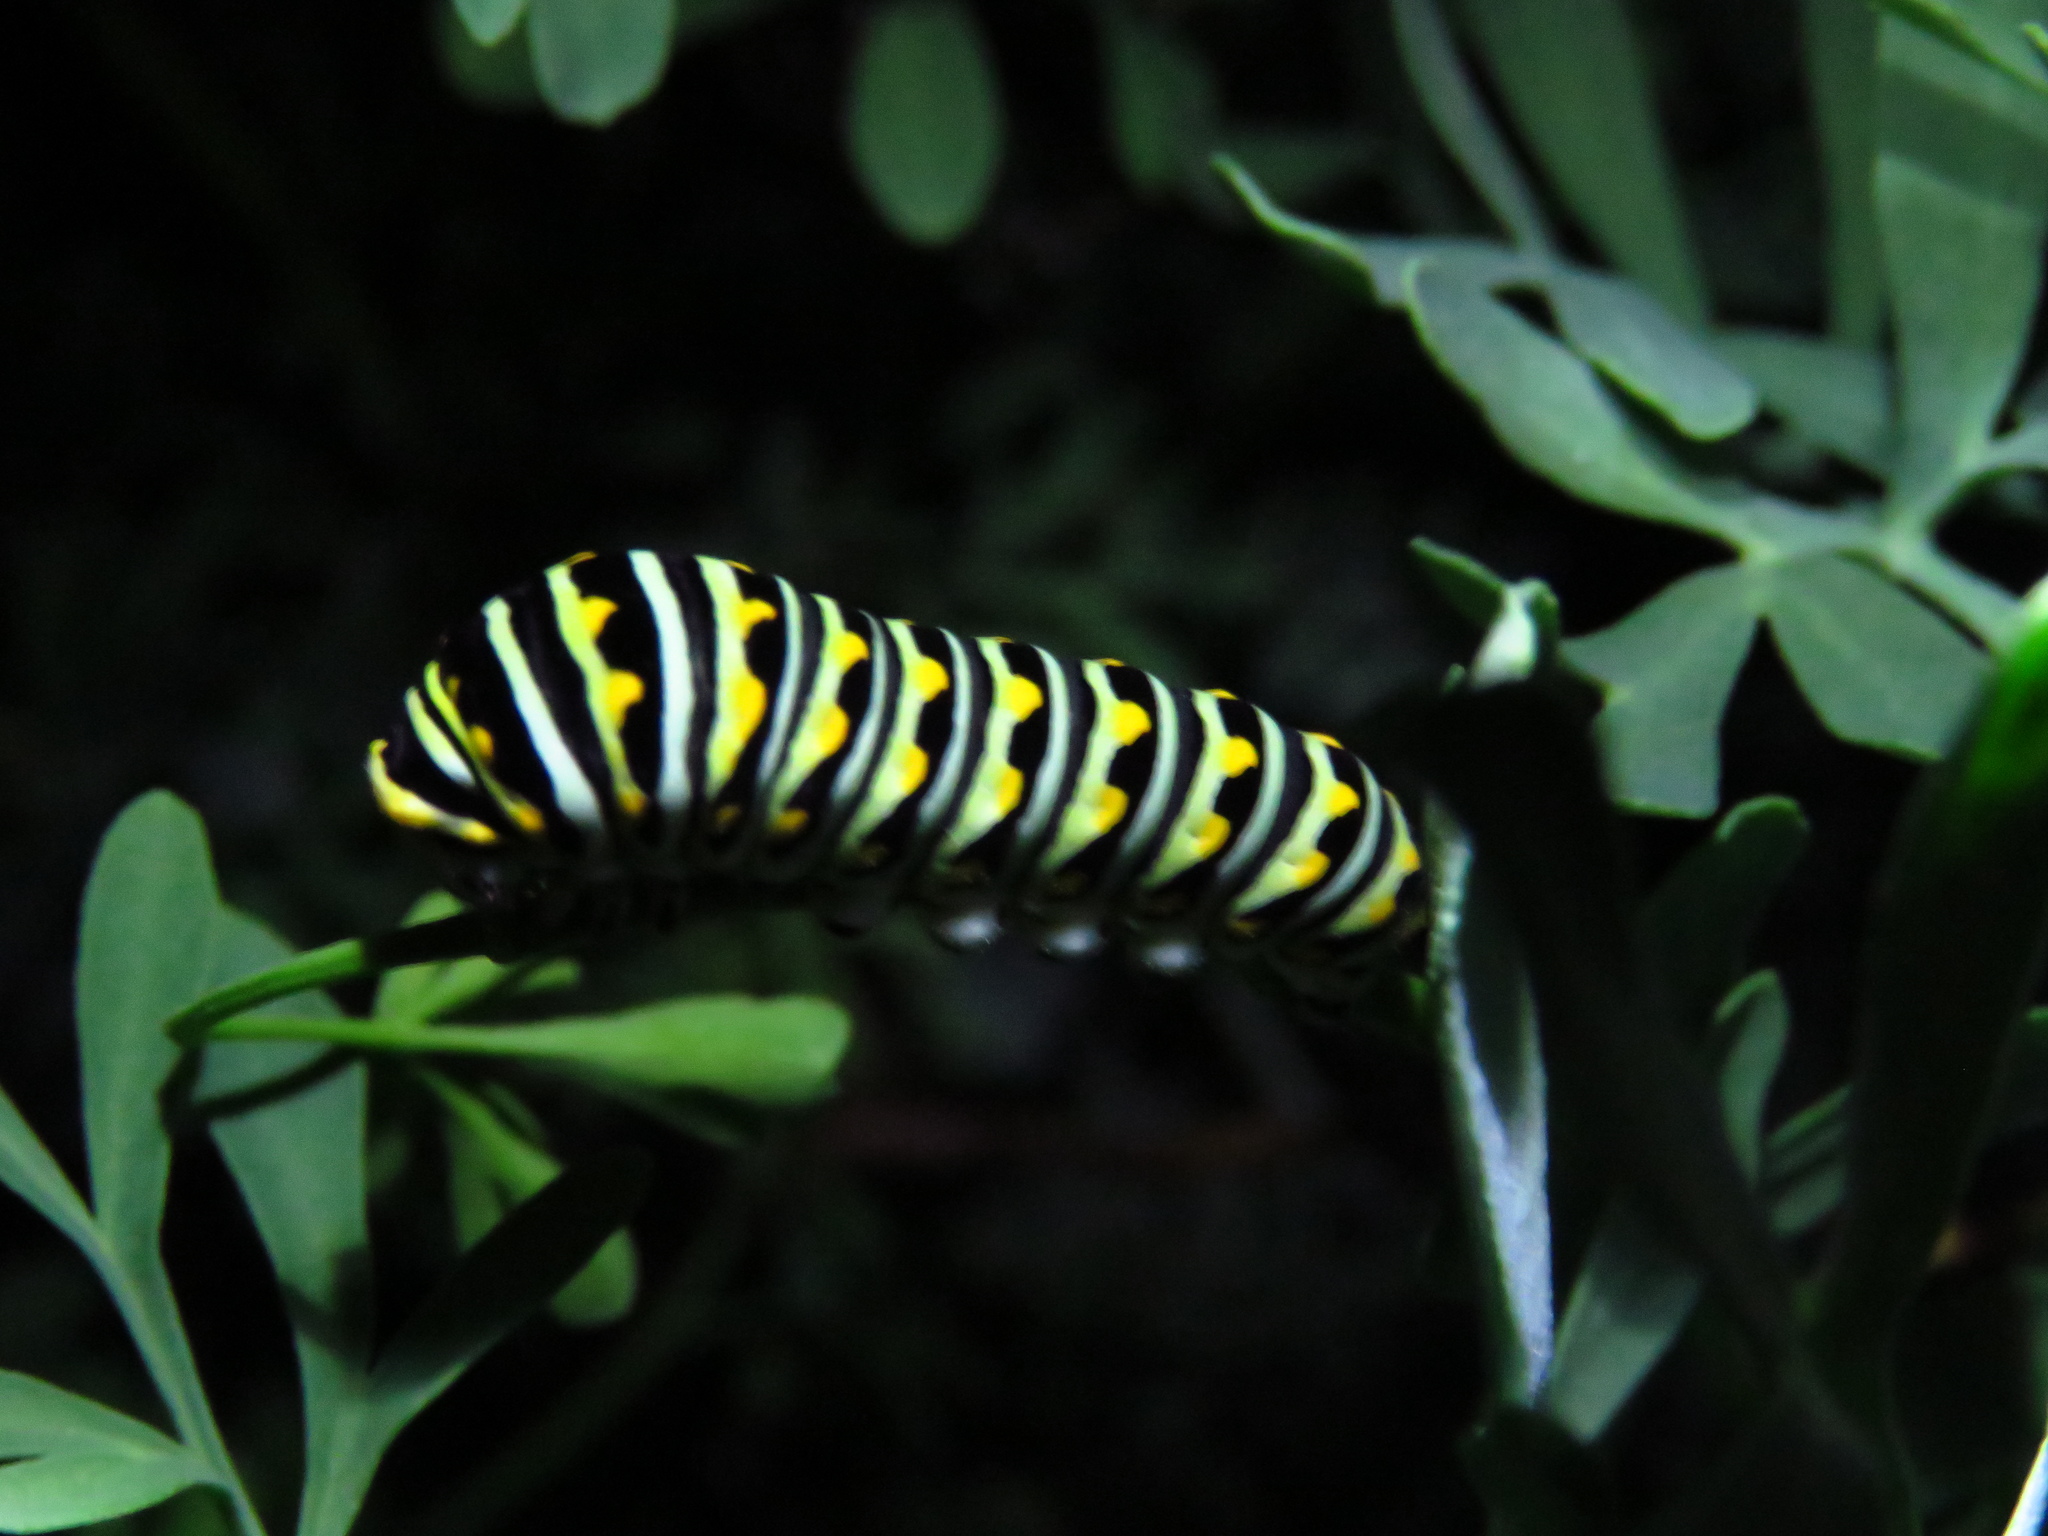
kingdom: Animalia
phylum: Arthropoda
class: Insecta
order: Lepidoptera
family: Papilionidae
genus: Papilio
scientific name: Papilio polyxenes
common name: Black swallowtail
